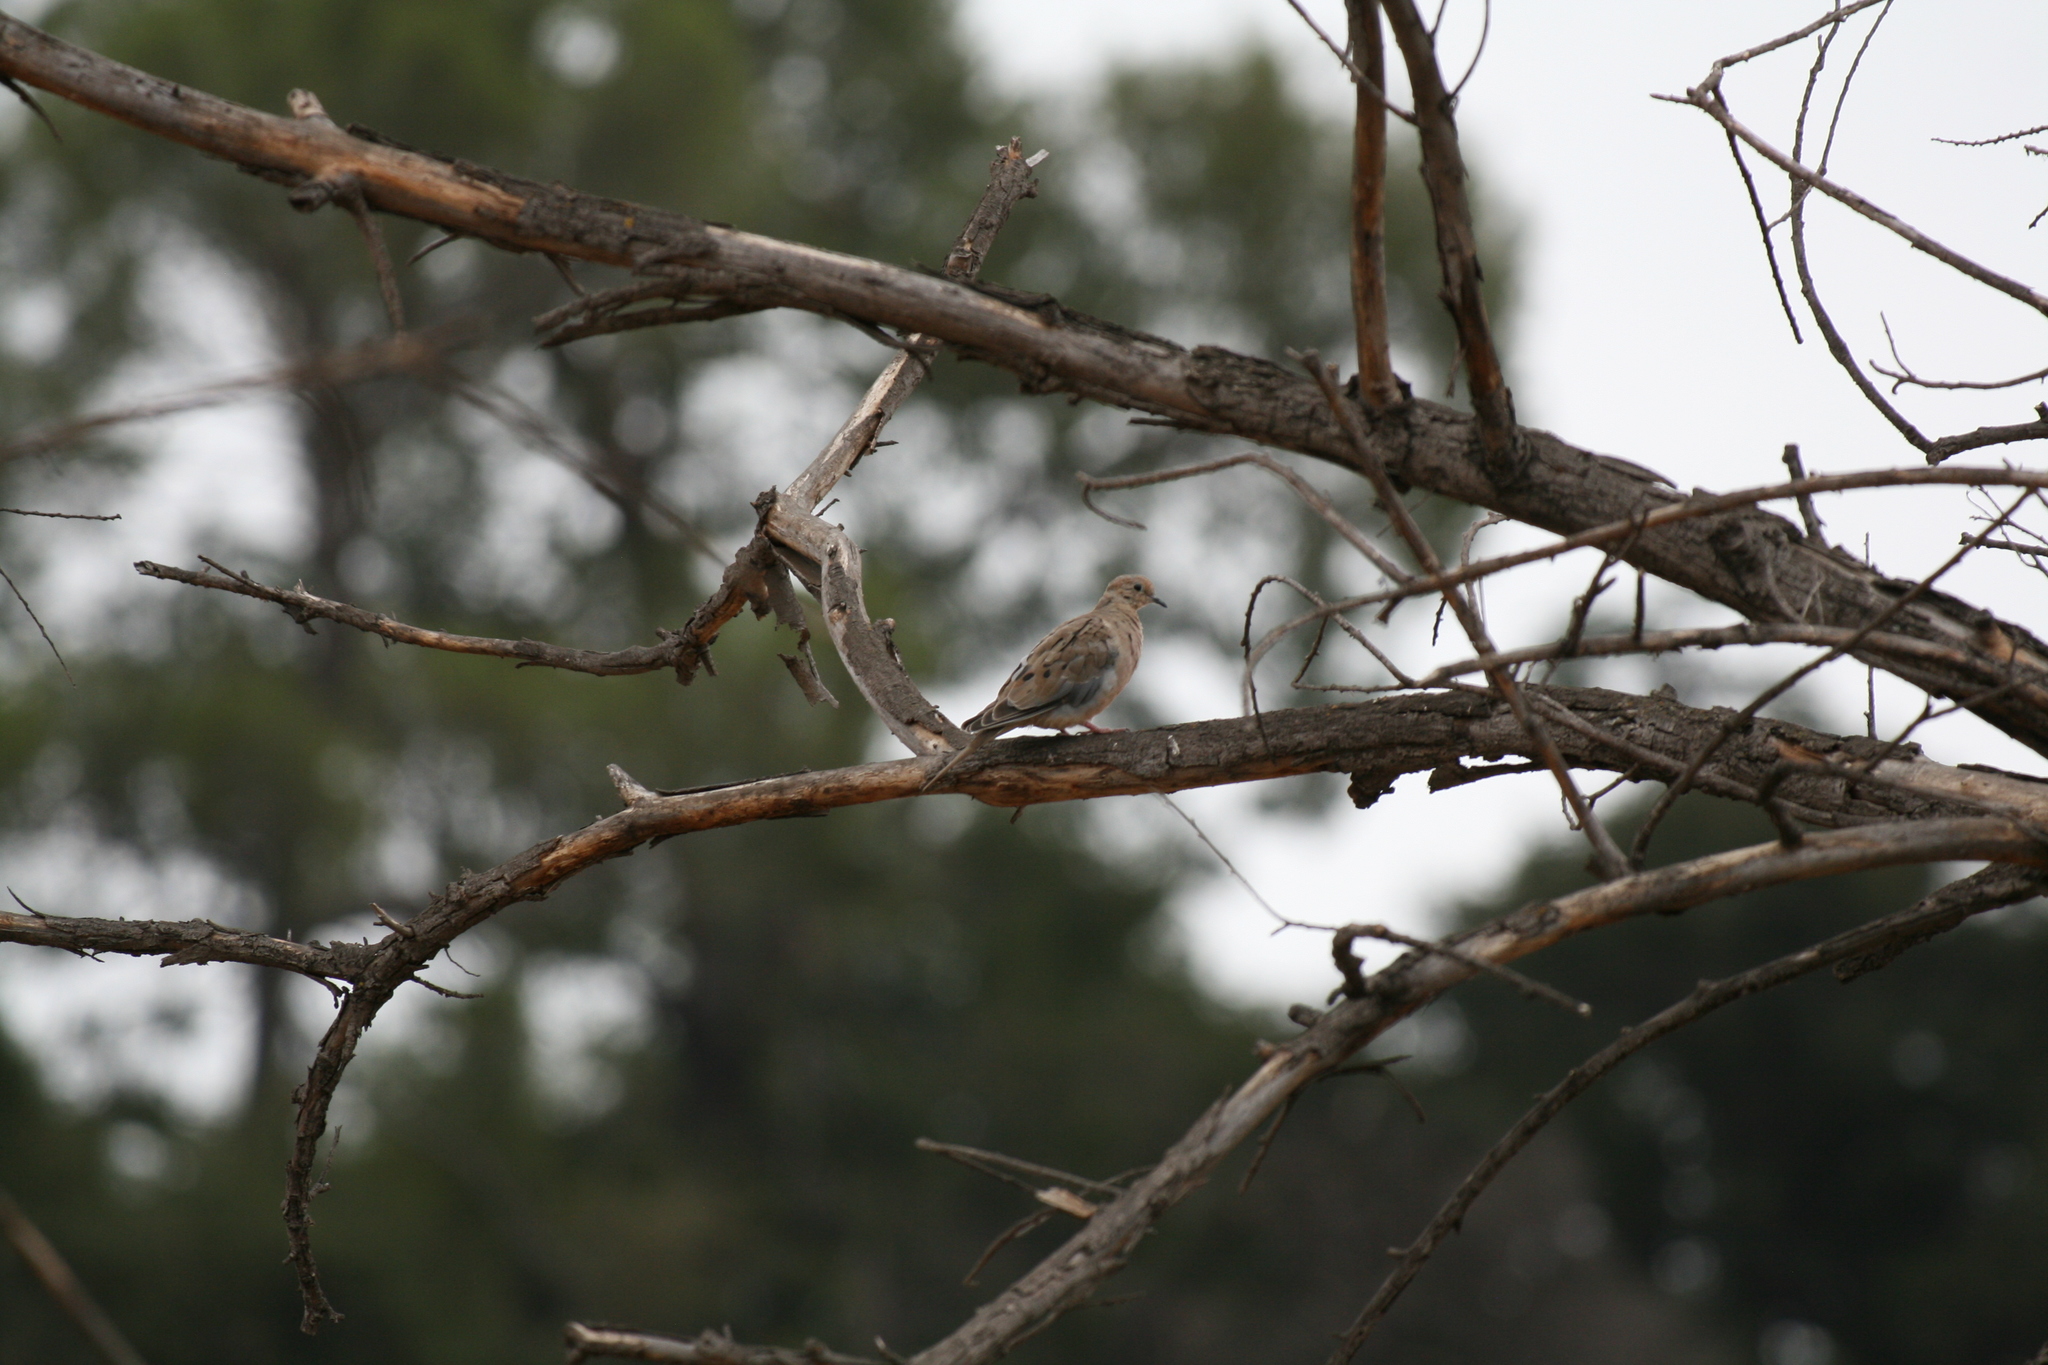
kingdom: Animalia
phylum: Chordata
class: Aves
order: Columbiformes
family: Columbidae
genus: Zenaida
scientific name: Zenaida macroura
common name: Mourning dove
